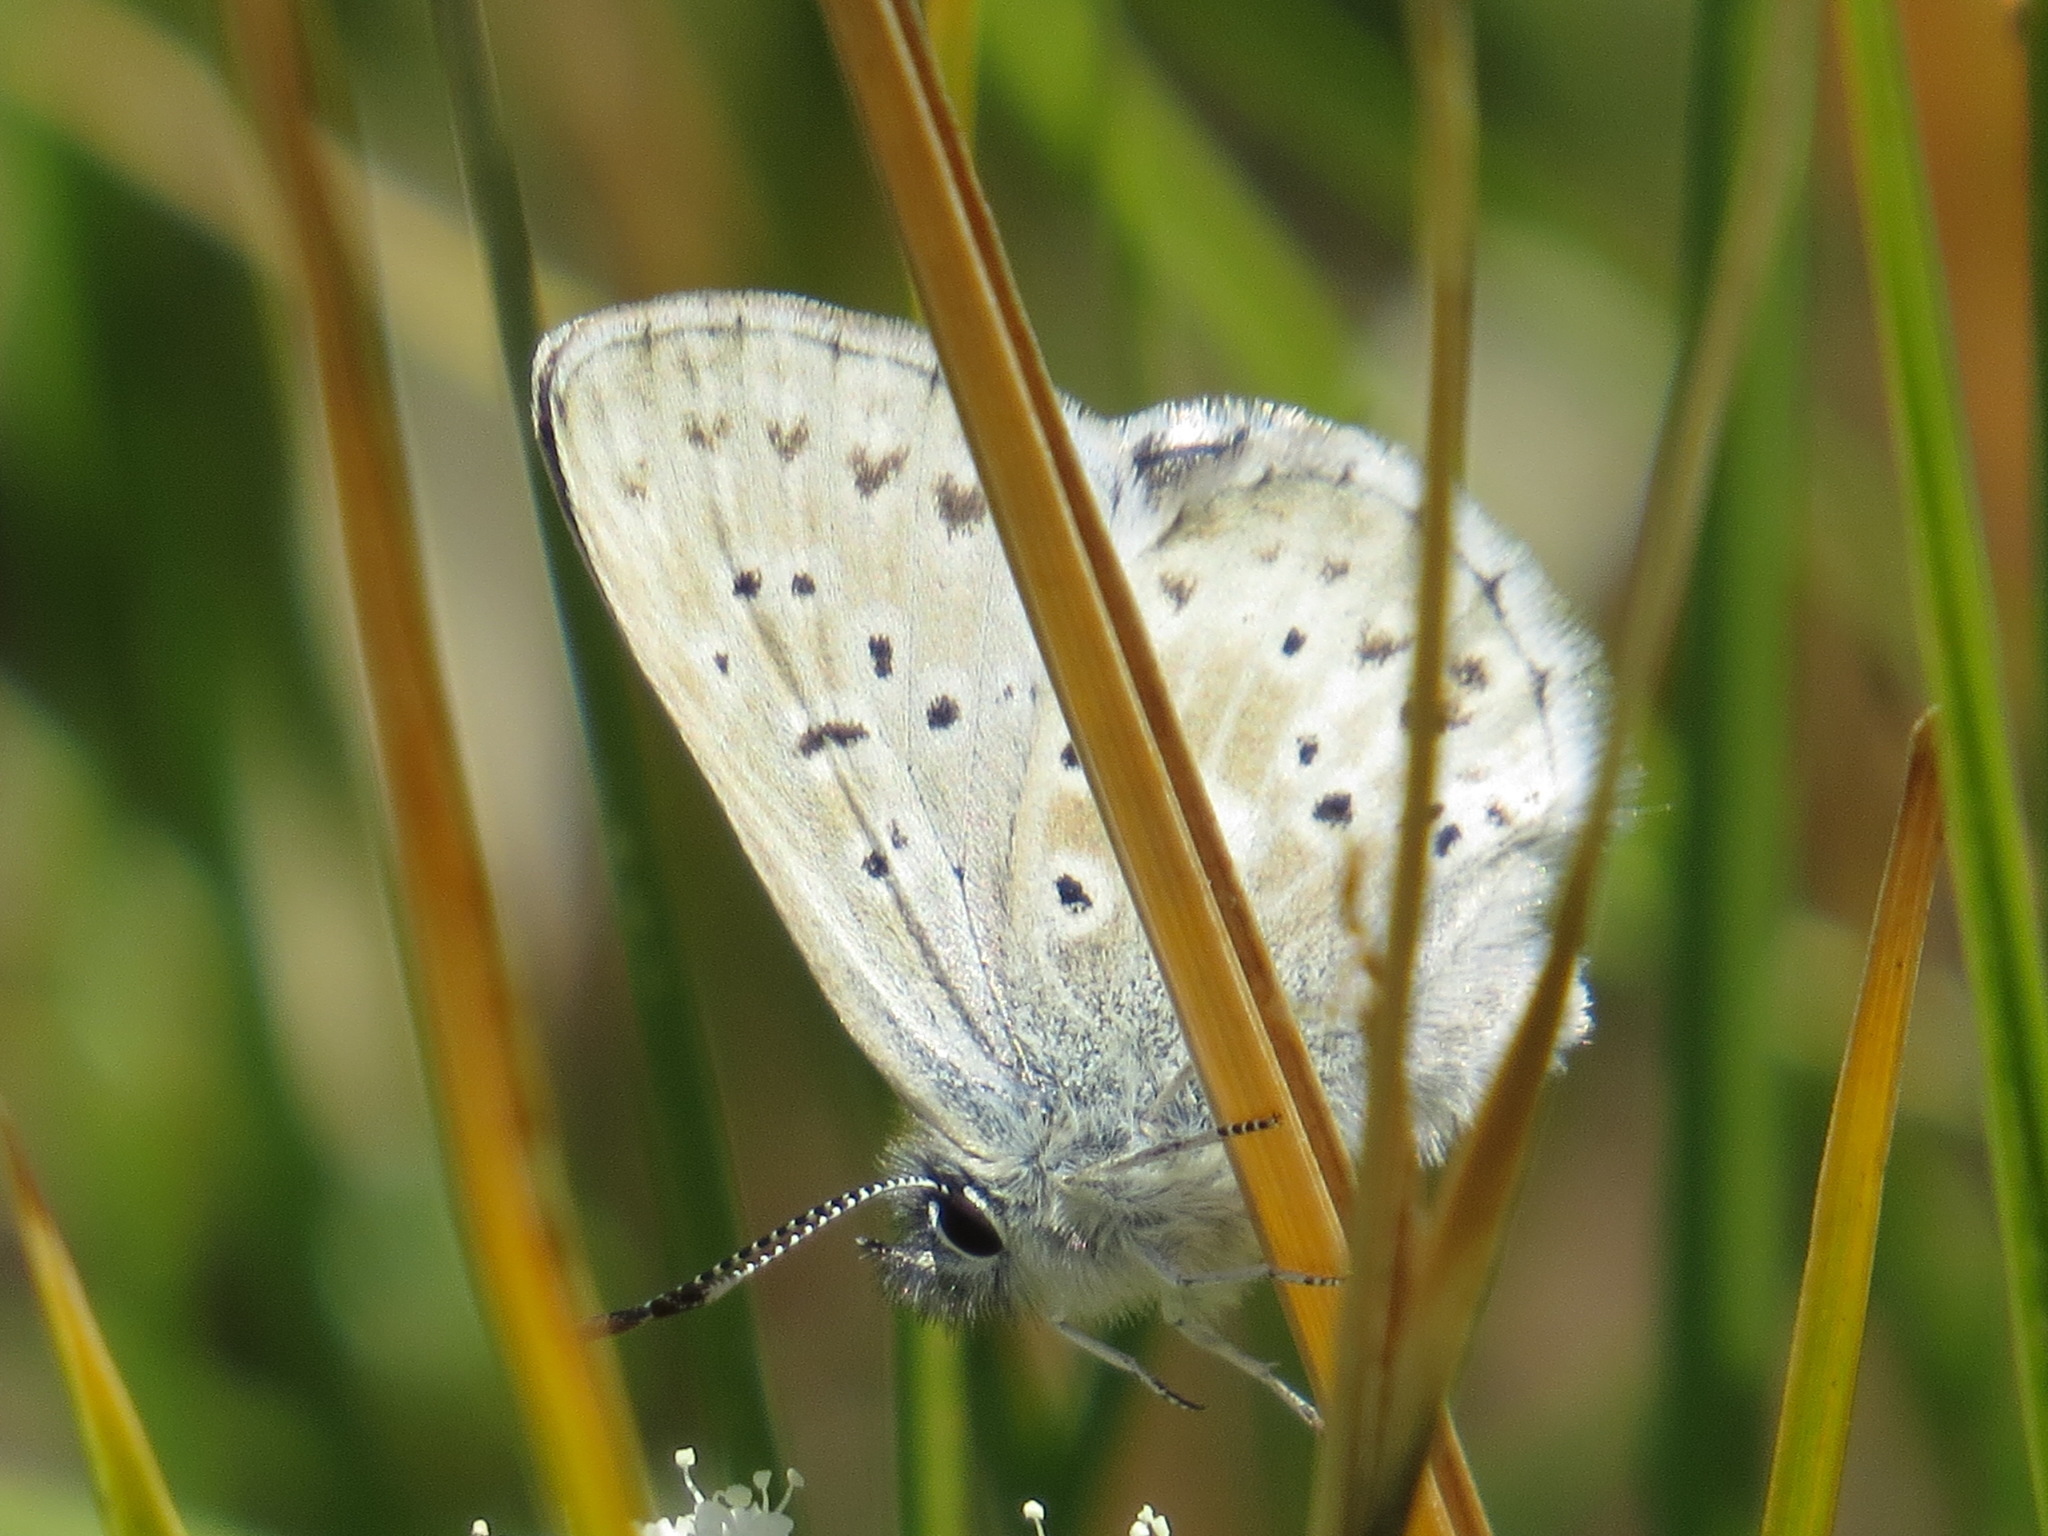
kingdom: Animalia
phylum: Arthropoda
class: Insecta
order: Lepidoptera
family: Lycaenidae
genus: Agriades
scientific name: Agriades podarce
